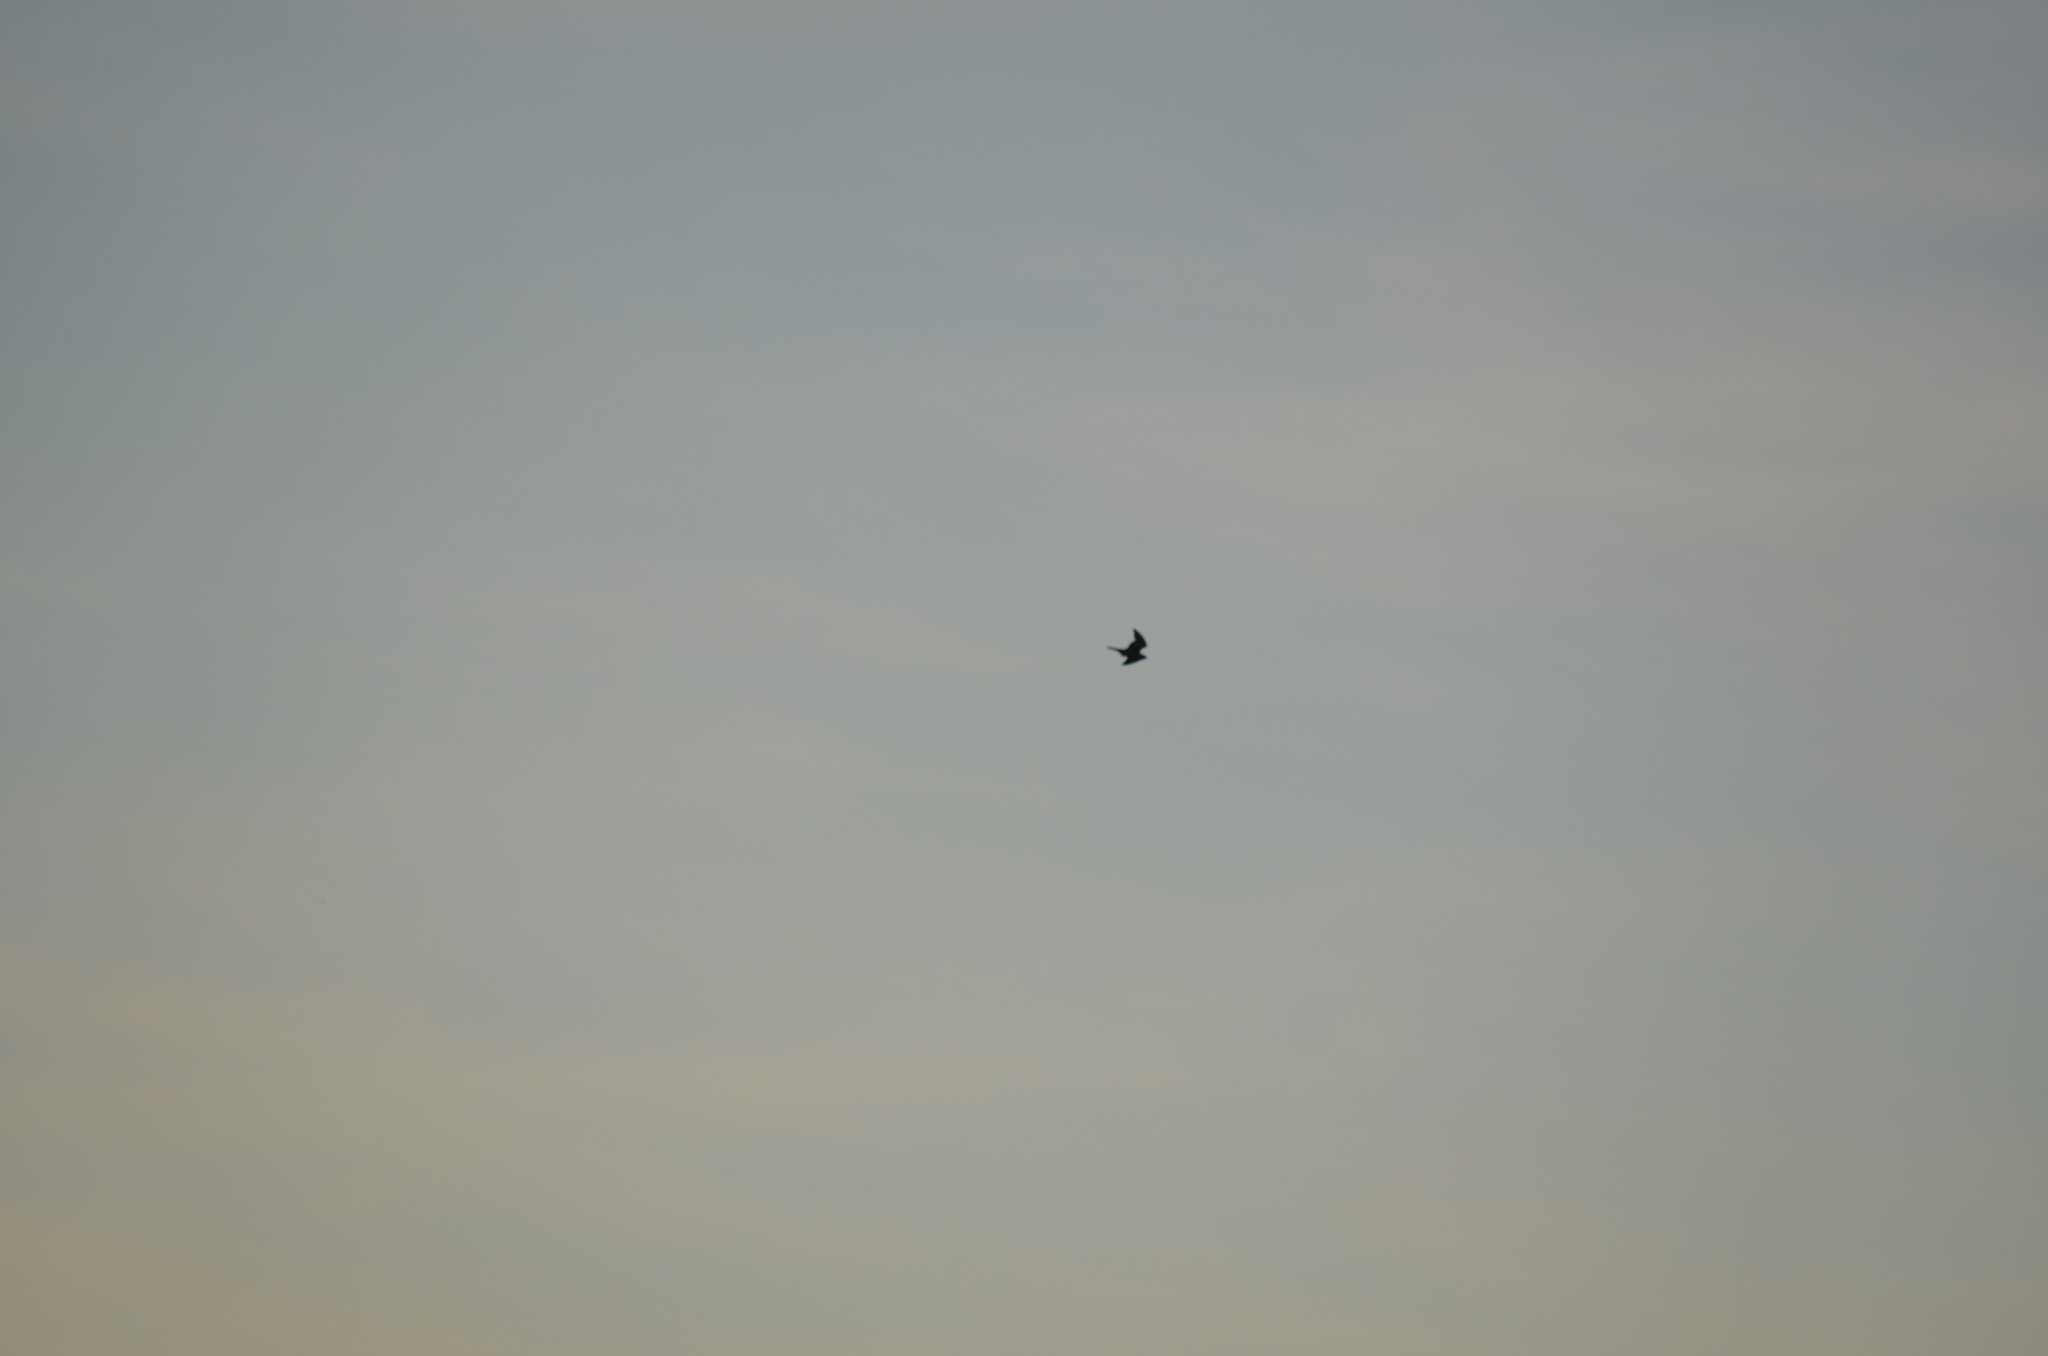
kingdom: Animalia
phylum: Chordata
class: Aves
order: Caprimulgiformes
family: Caprimulgidae
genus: Chordeiles
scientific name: Chordeiles minor
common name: Common nighthawk
